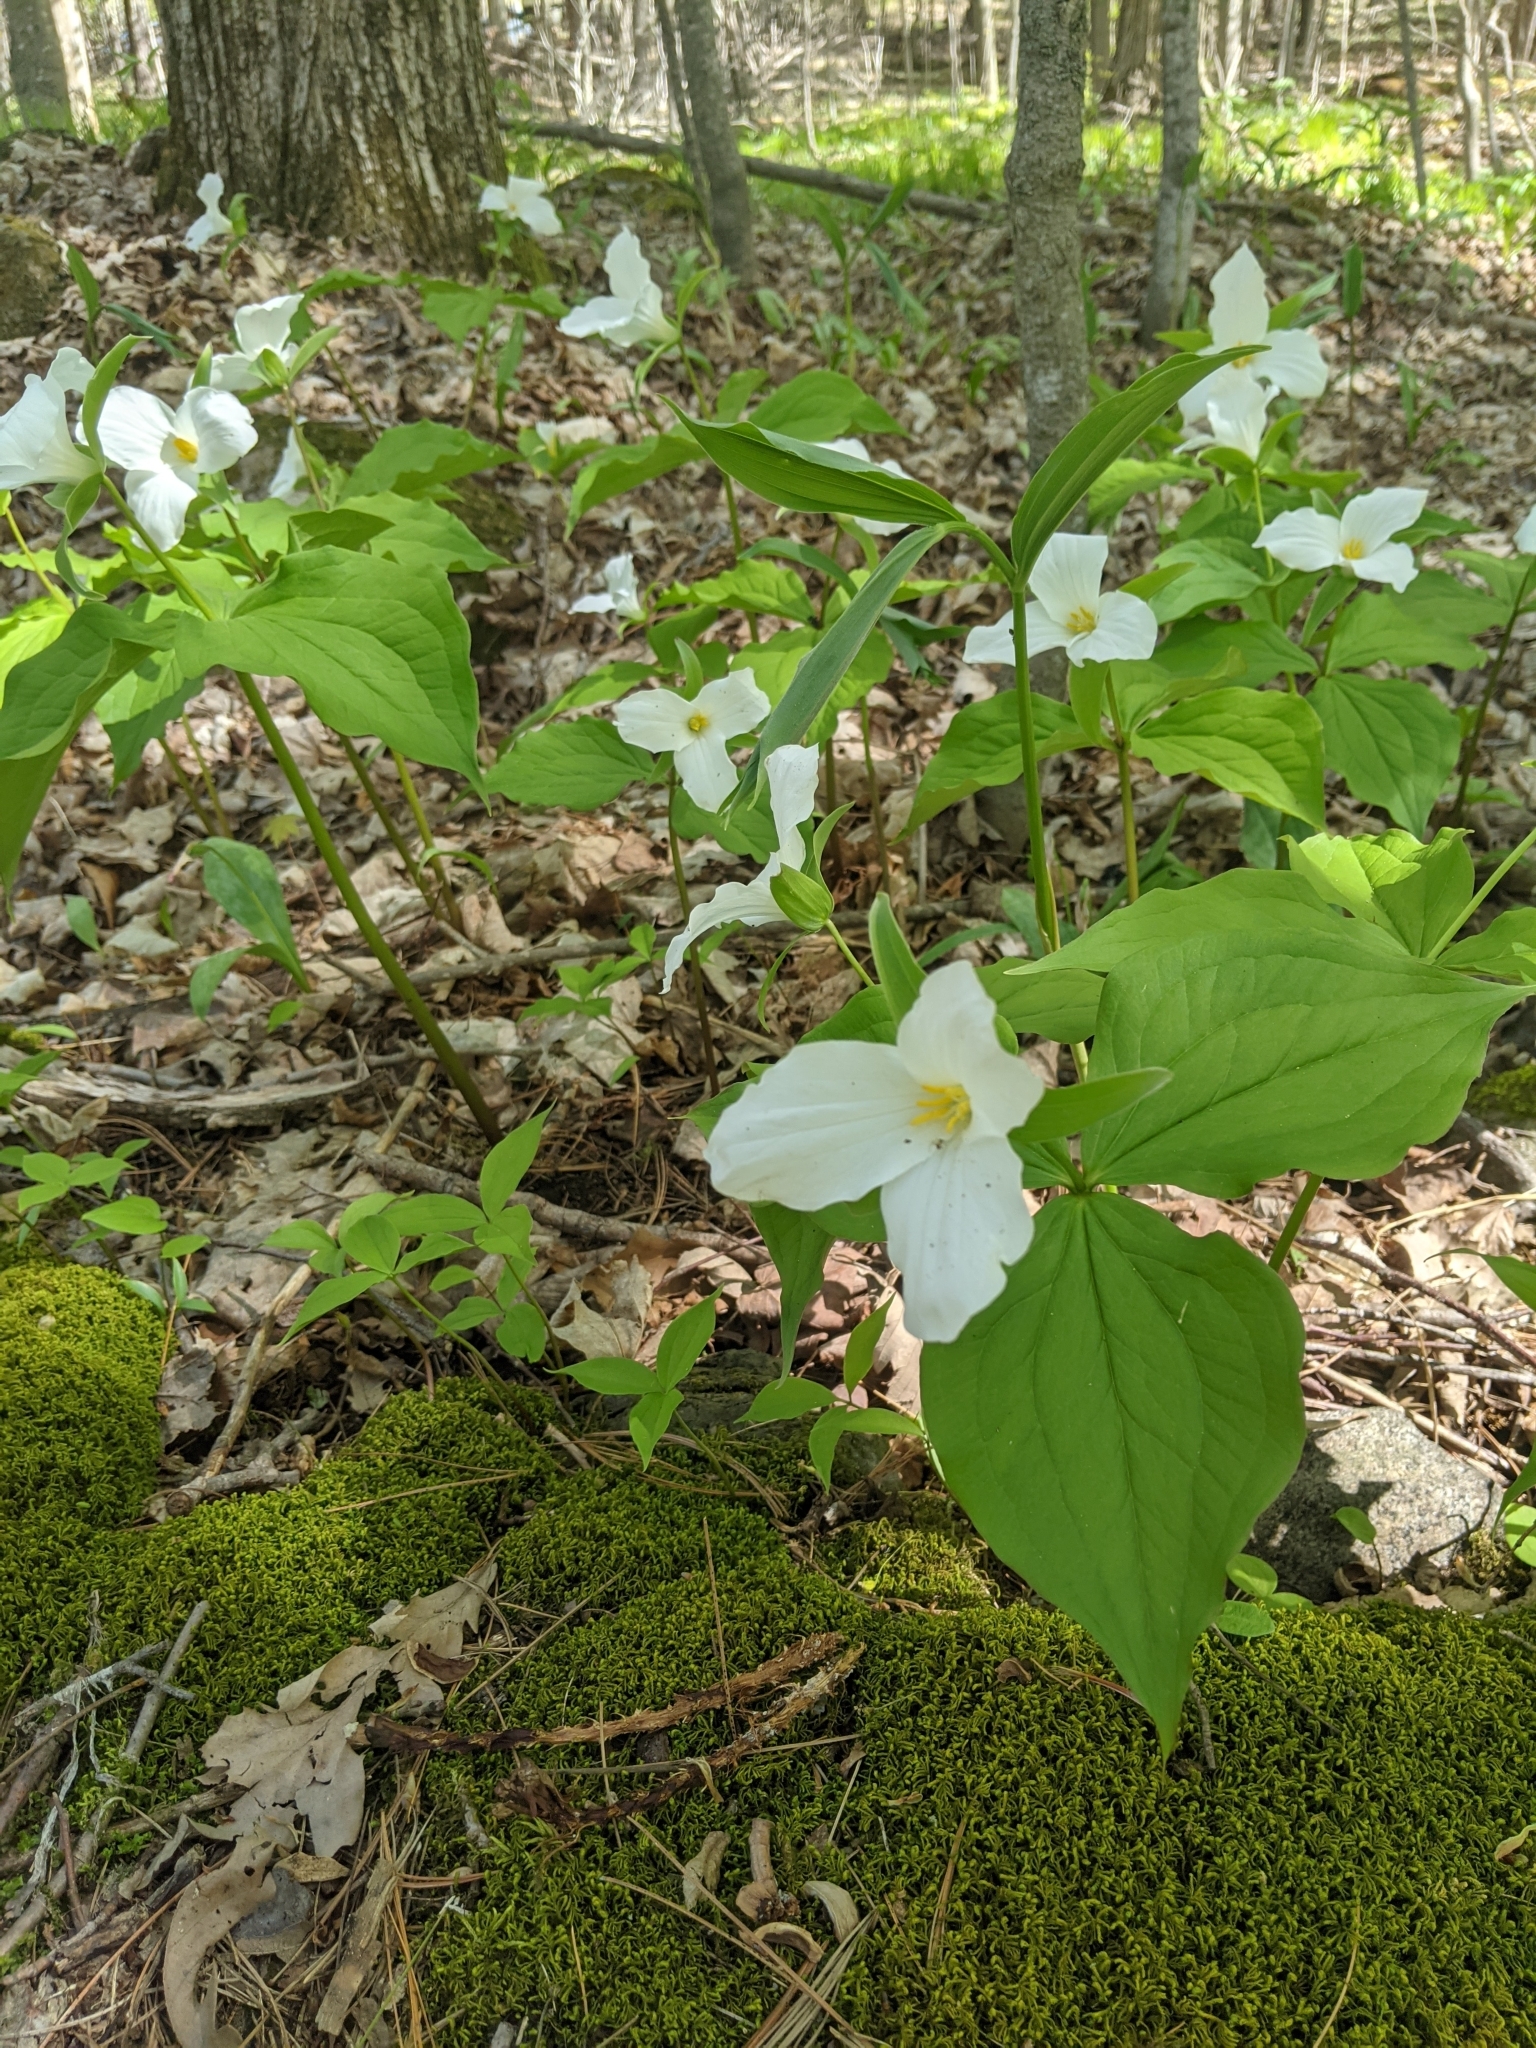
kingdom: Plantae
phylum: Tracheophyta
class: Liliopsida
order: Liliales
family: Melanthiaceae
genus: Trillium
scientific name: Trillium grandiflorum
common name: Great white trillium
